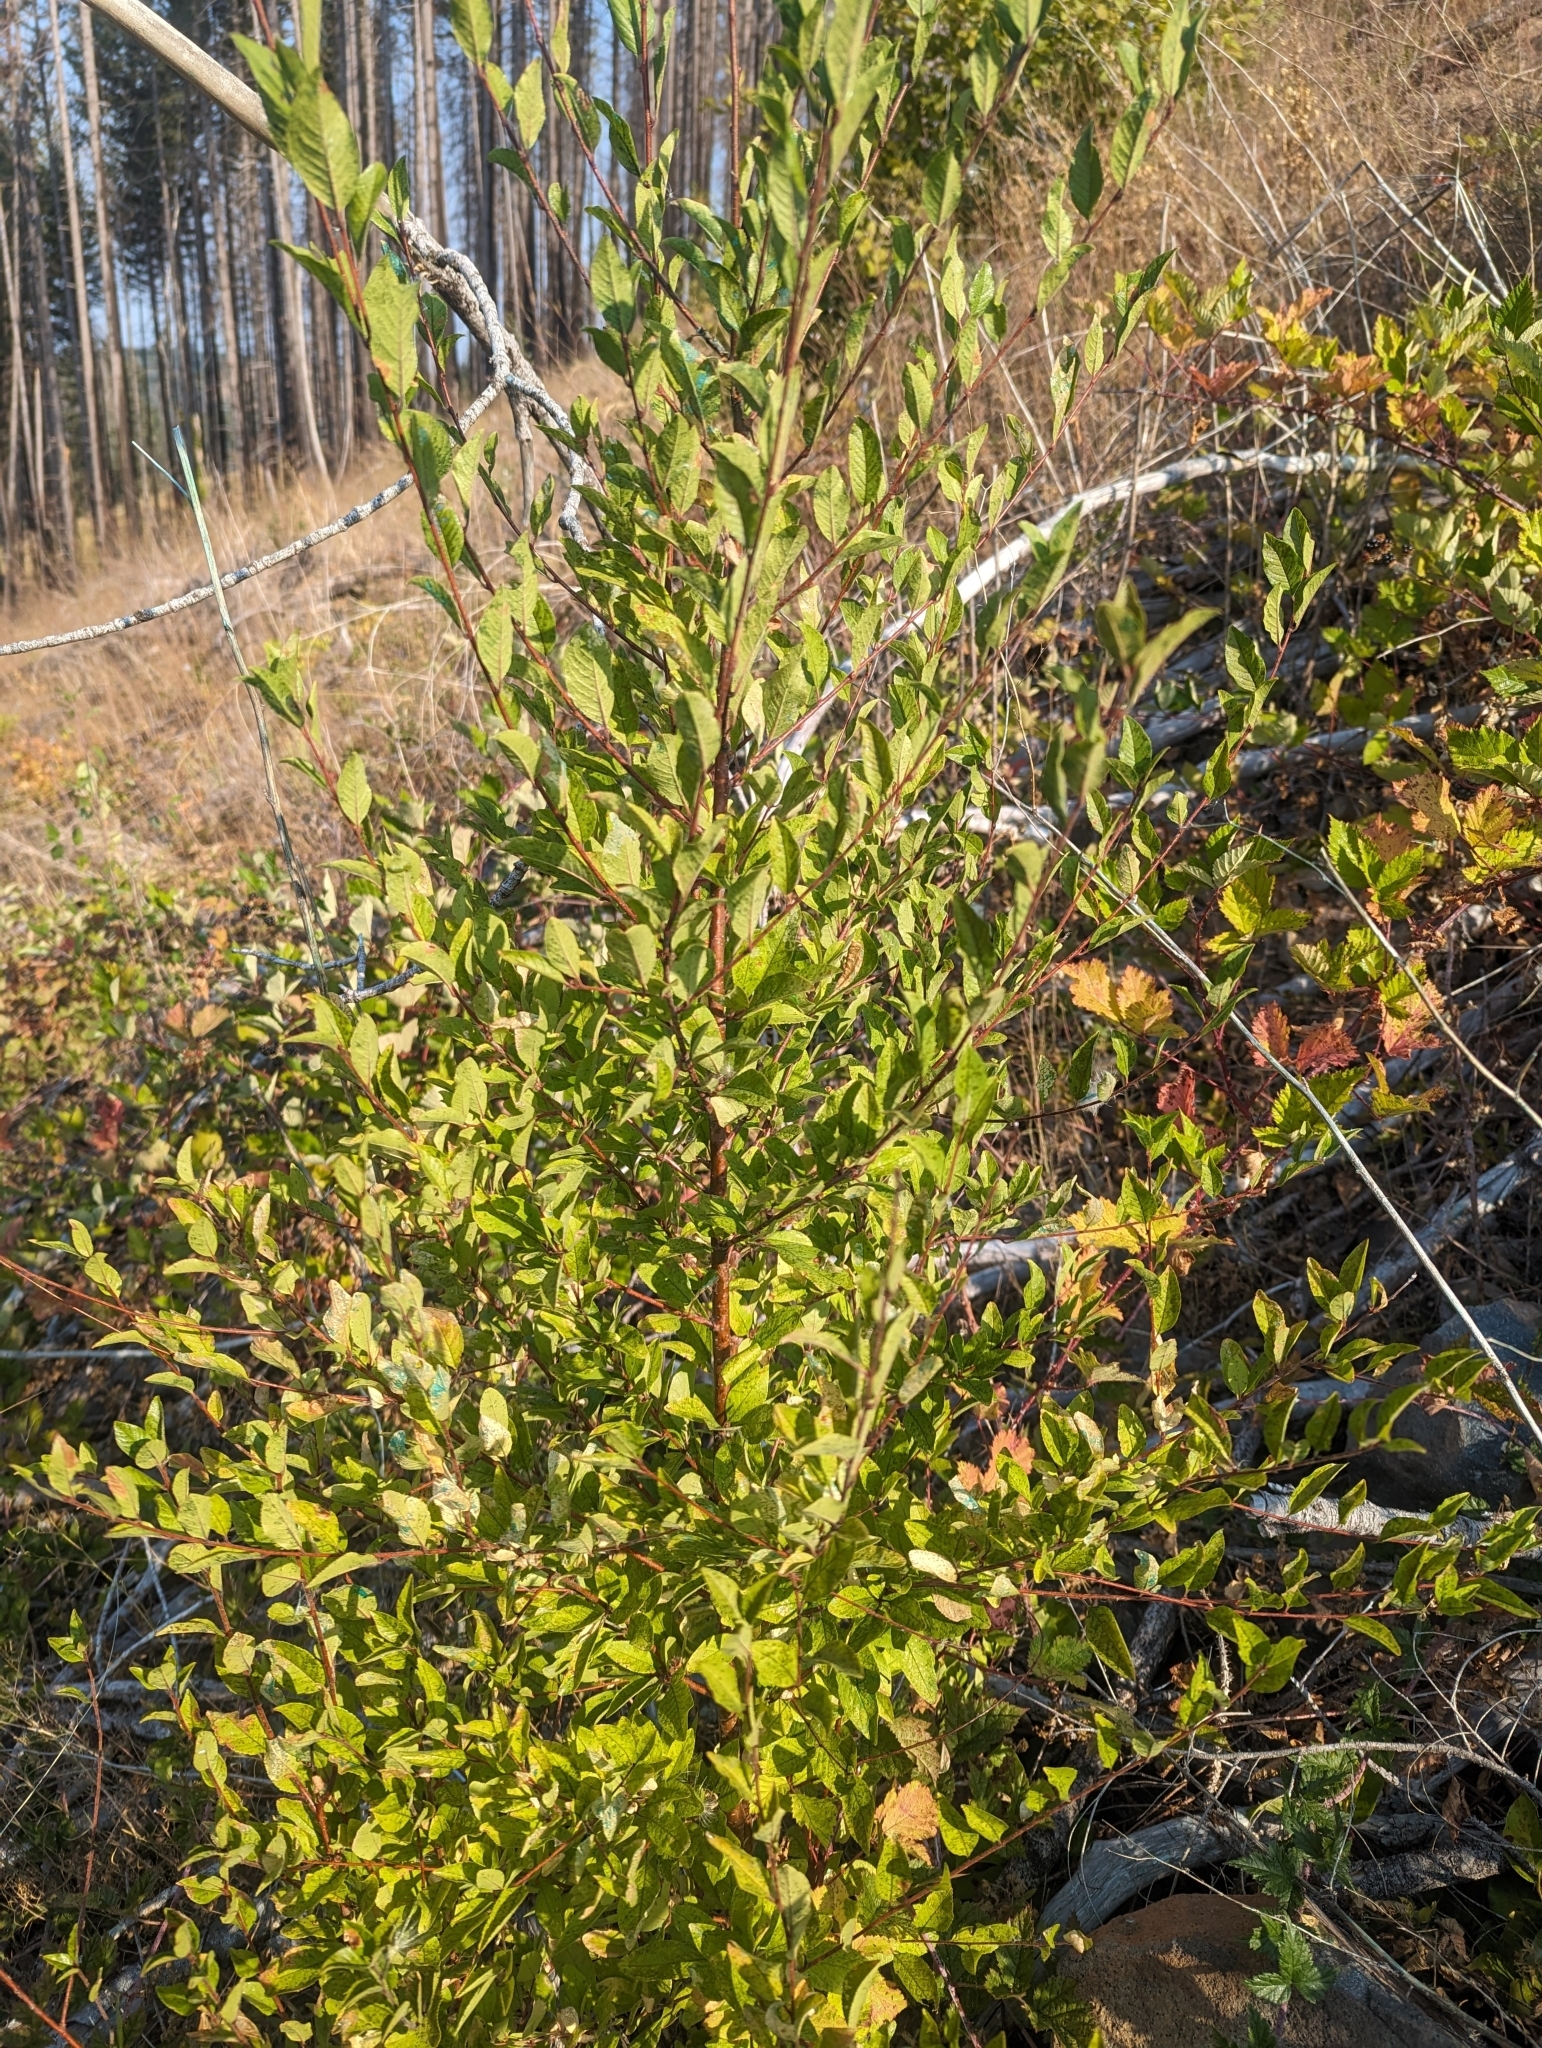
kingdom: Plantae
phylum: Tracheophyta
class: Magnoliopsida
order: Rosales
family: Rosaceae
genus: Prunus
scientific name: Prunus emarginata
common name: Bitter cherry
